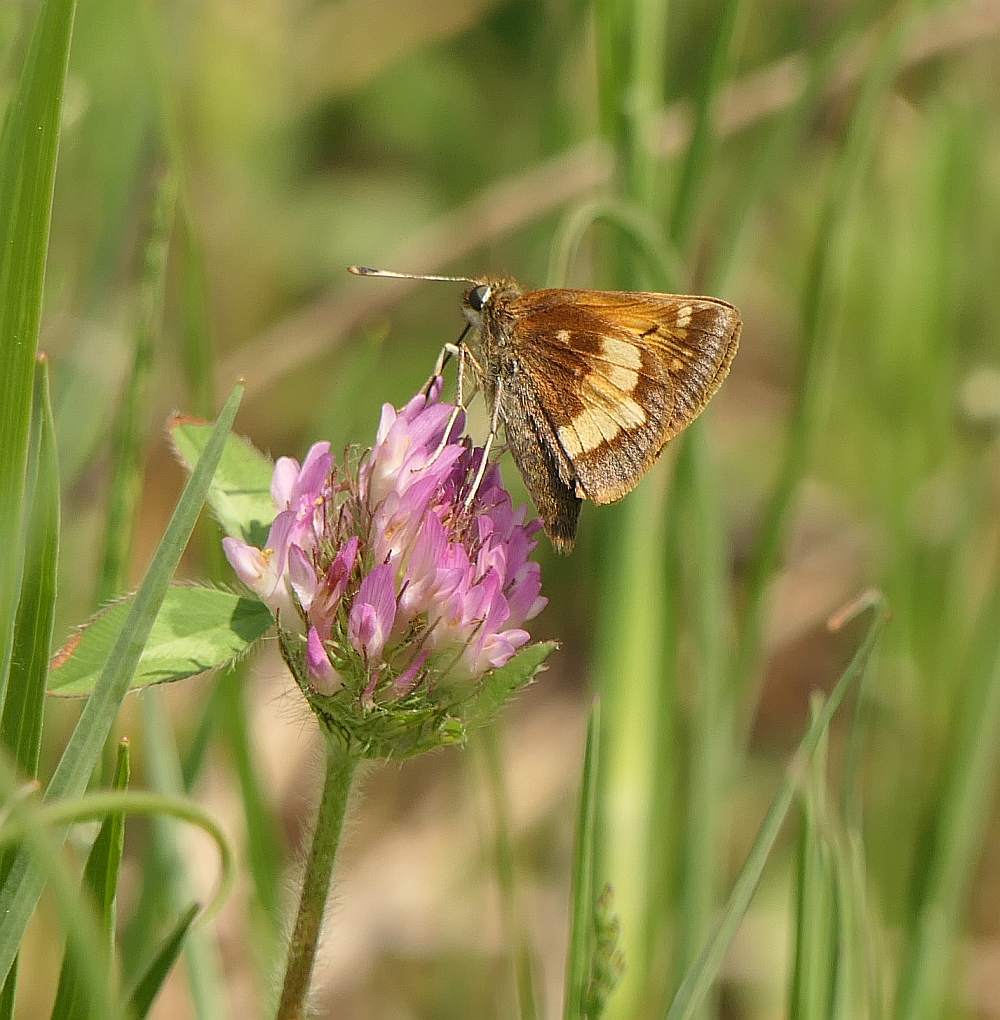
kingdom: Animalia
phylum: Arthropoda
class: Insecta
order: Lepidoptera
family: Hesperiidae
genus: Lon
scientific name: Lon hobomok
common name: Hobomok skipper
